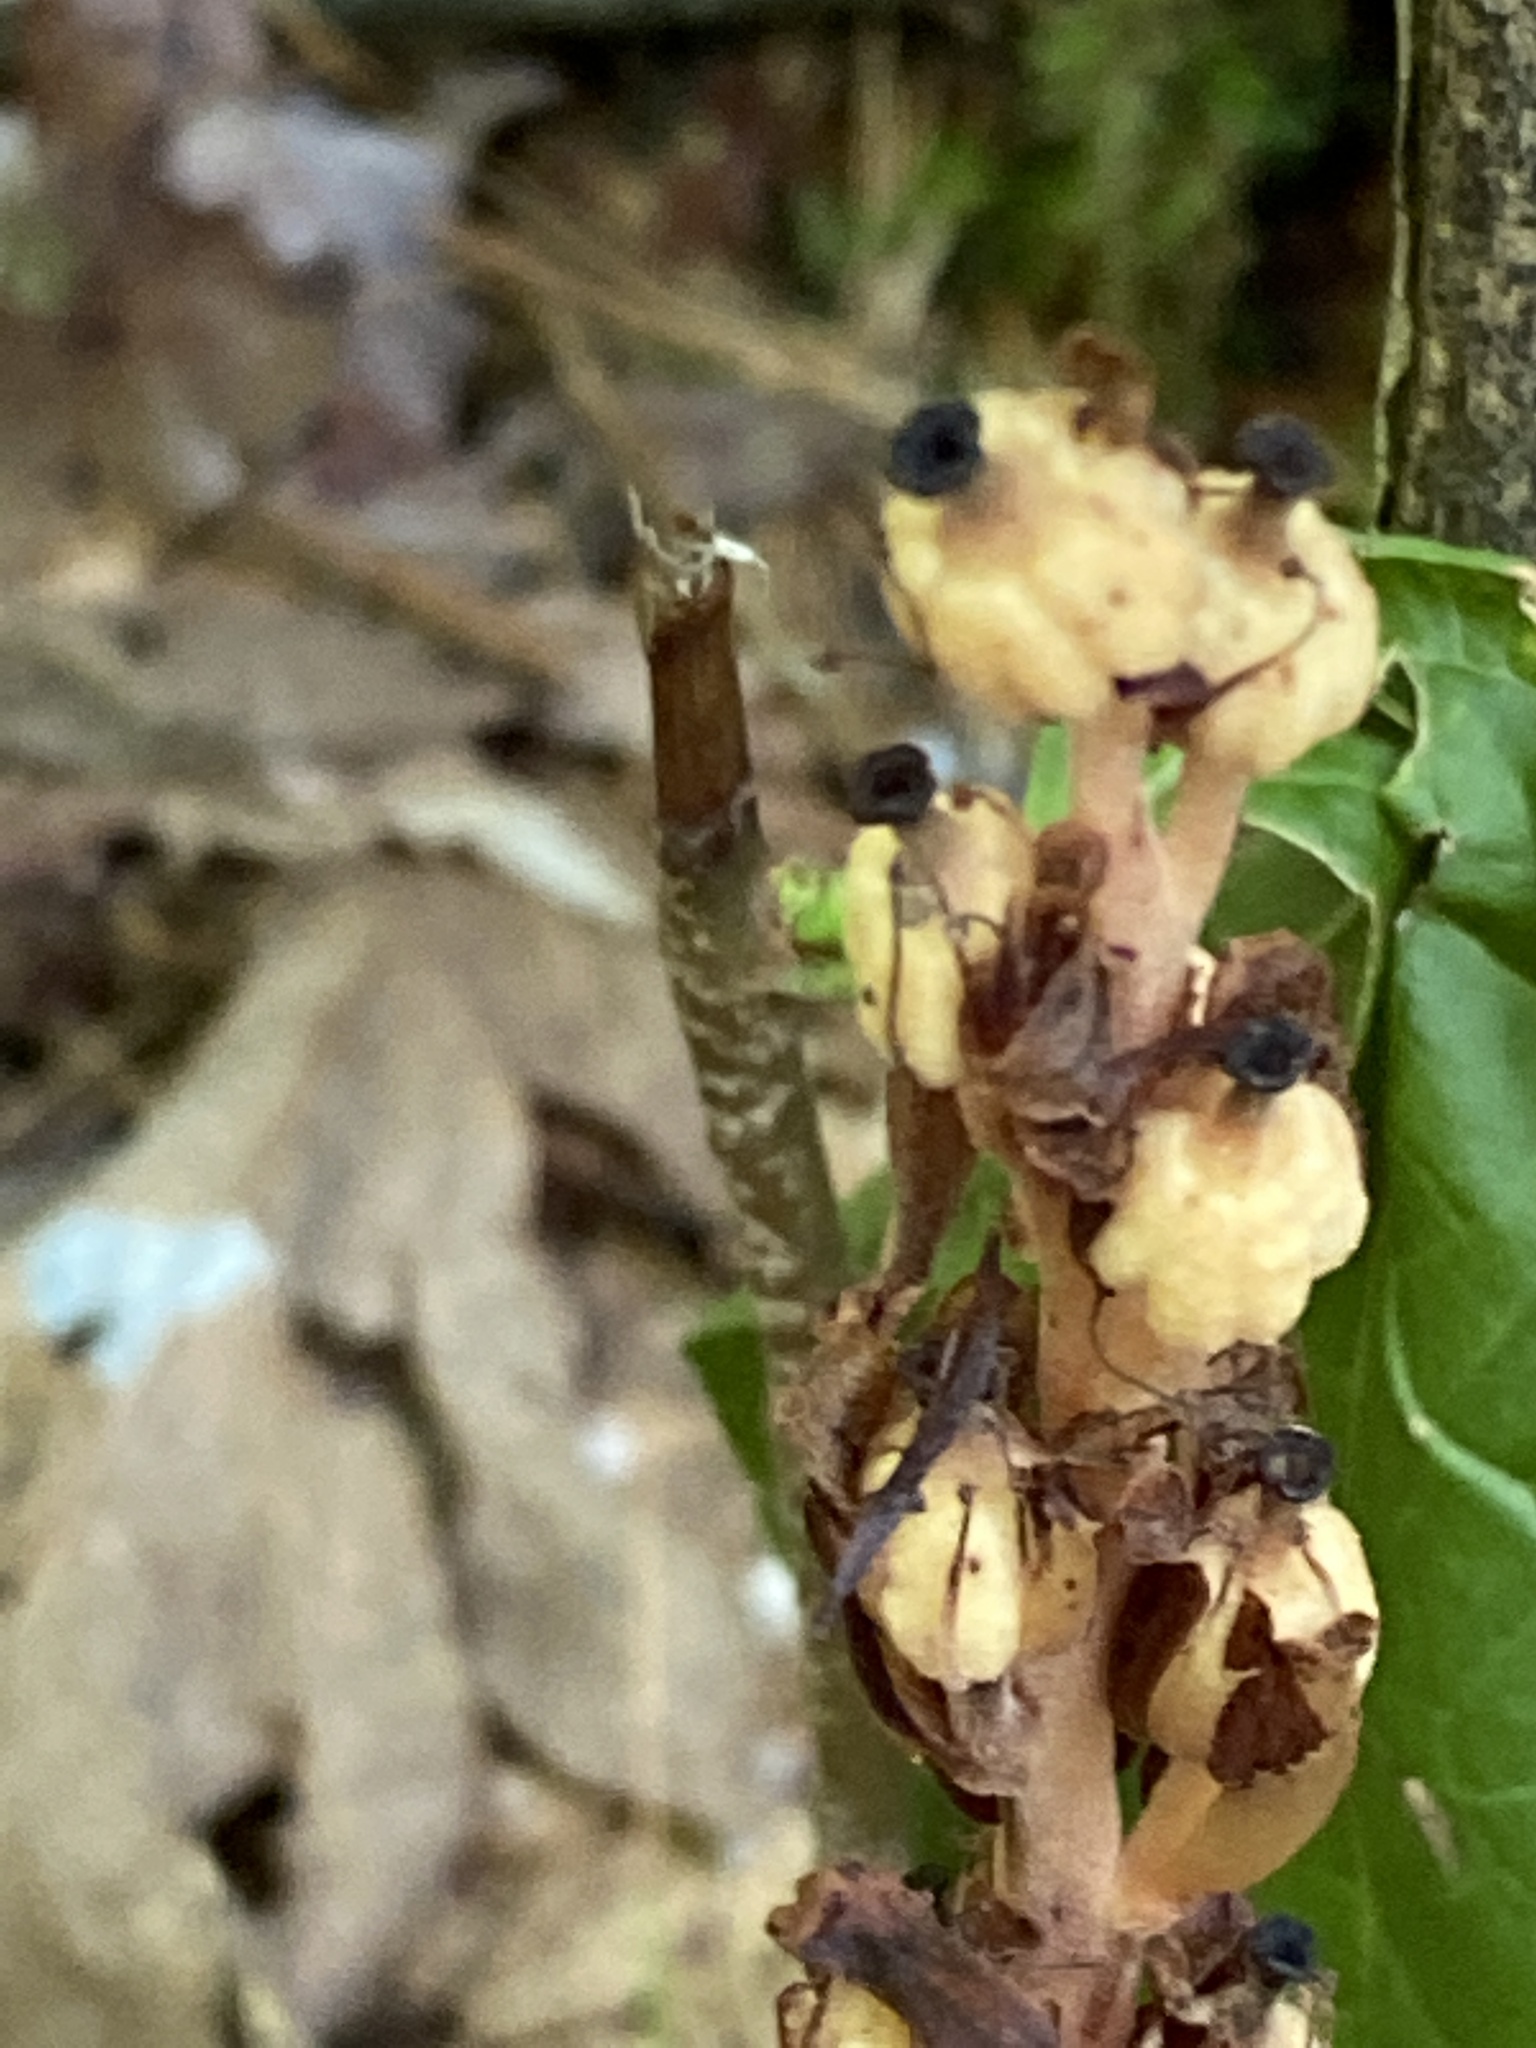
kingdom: Plantae
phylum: Tracheophyta
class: Magnoliopsida
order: Ericales
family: Ericaceae
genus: Hypopitys
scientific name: Hypopitys monotropa
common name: Yellow bird's-nest
